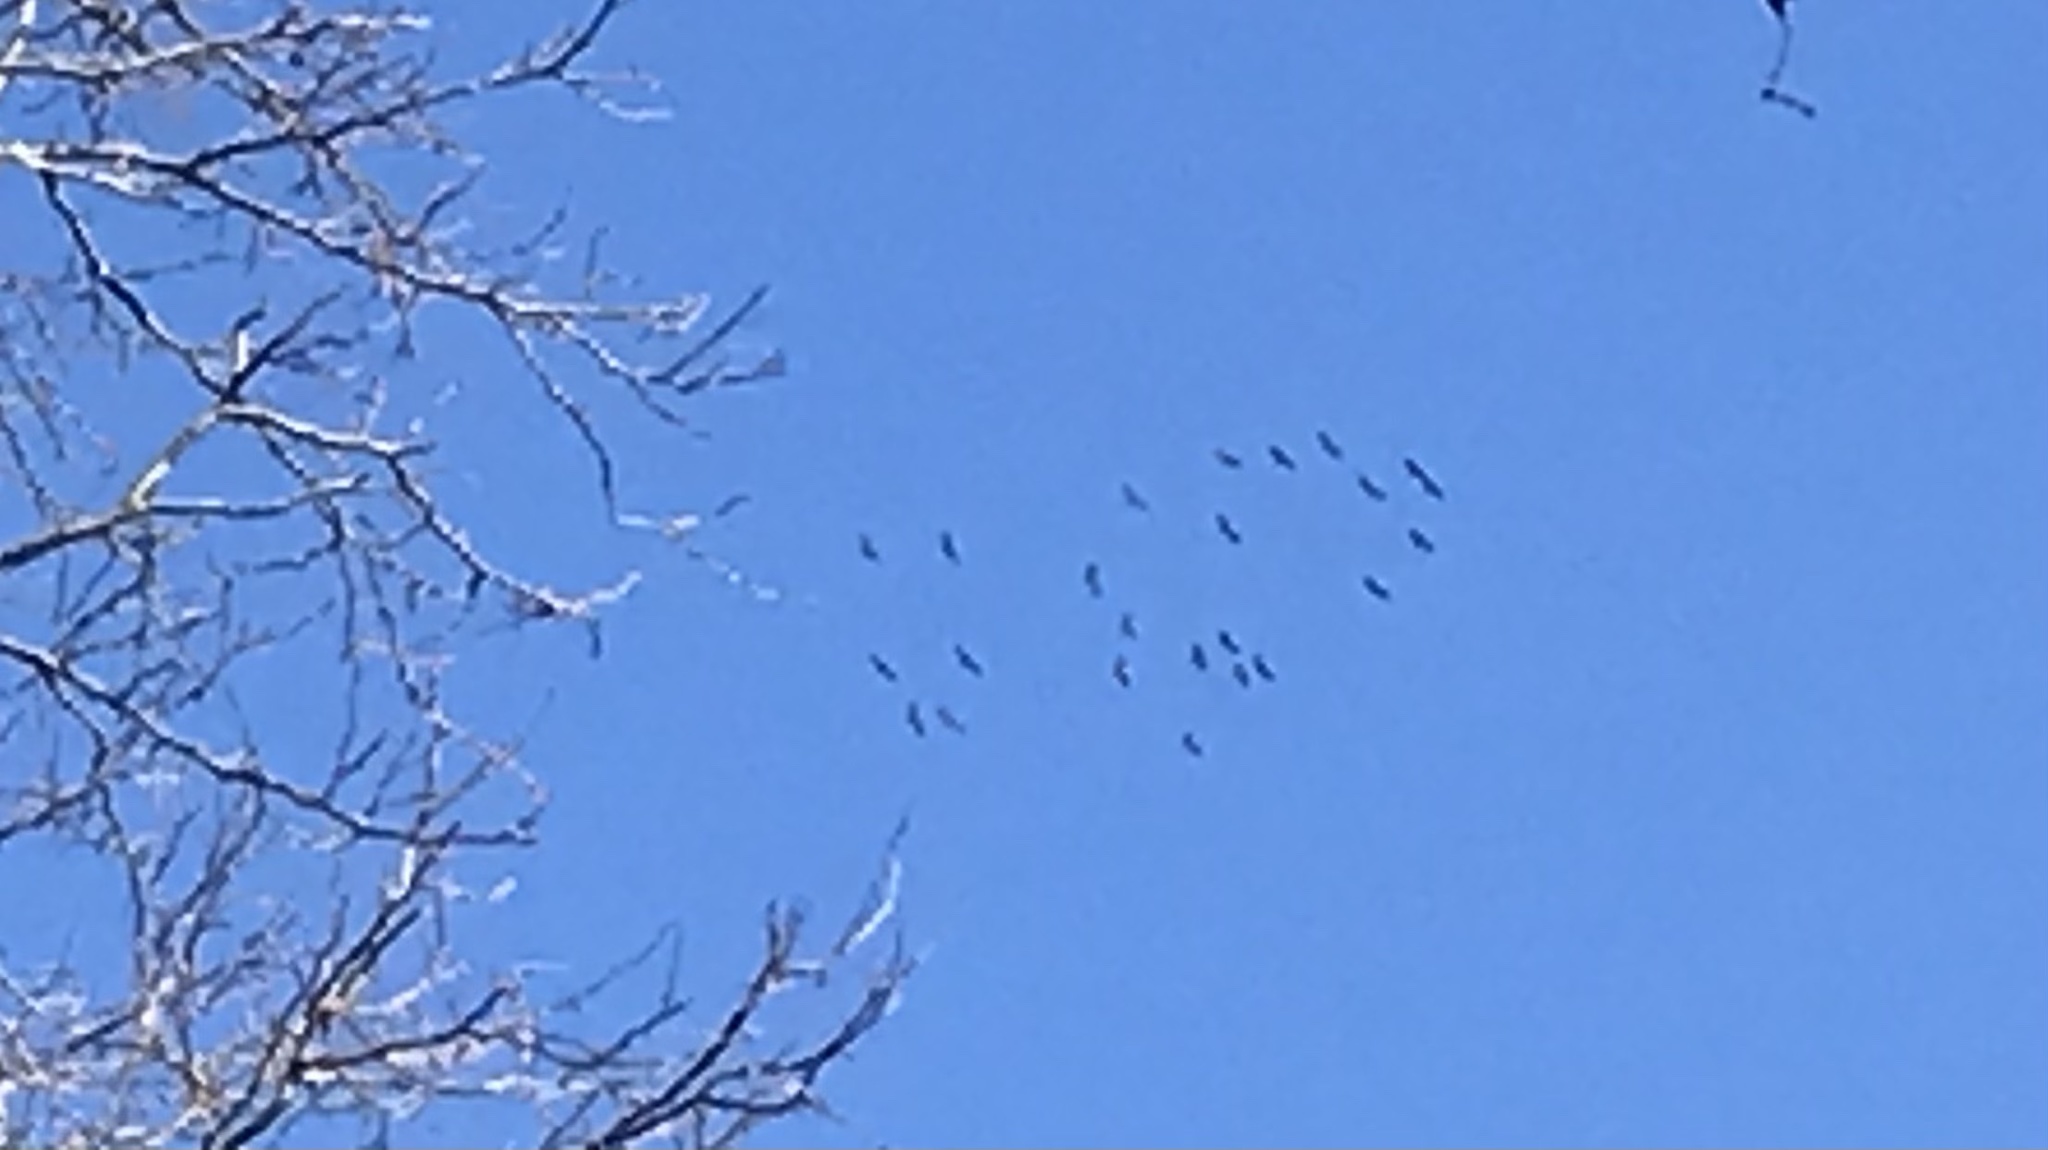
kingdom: Animalia
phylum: Chordata
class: Aves
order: Gruiformes
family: Gruidae
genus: Grus
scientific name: Grus canadensis
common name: Sandhill crane
